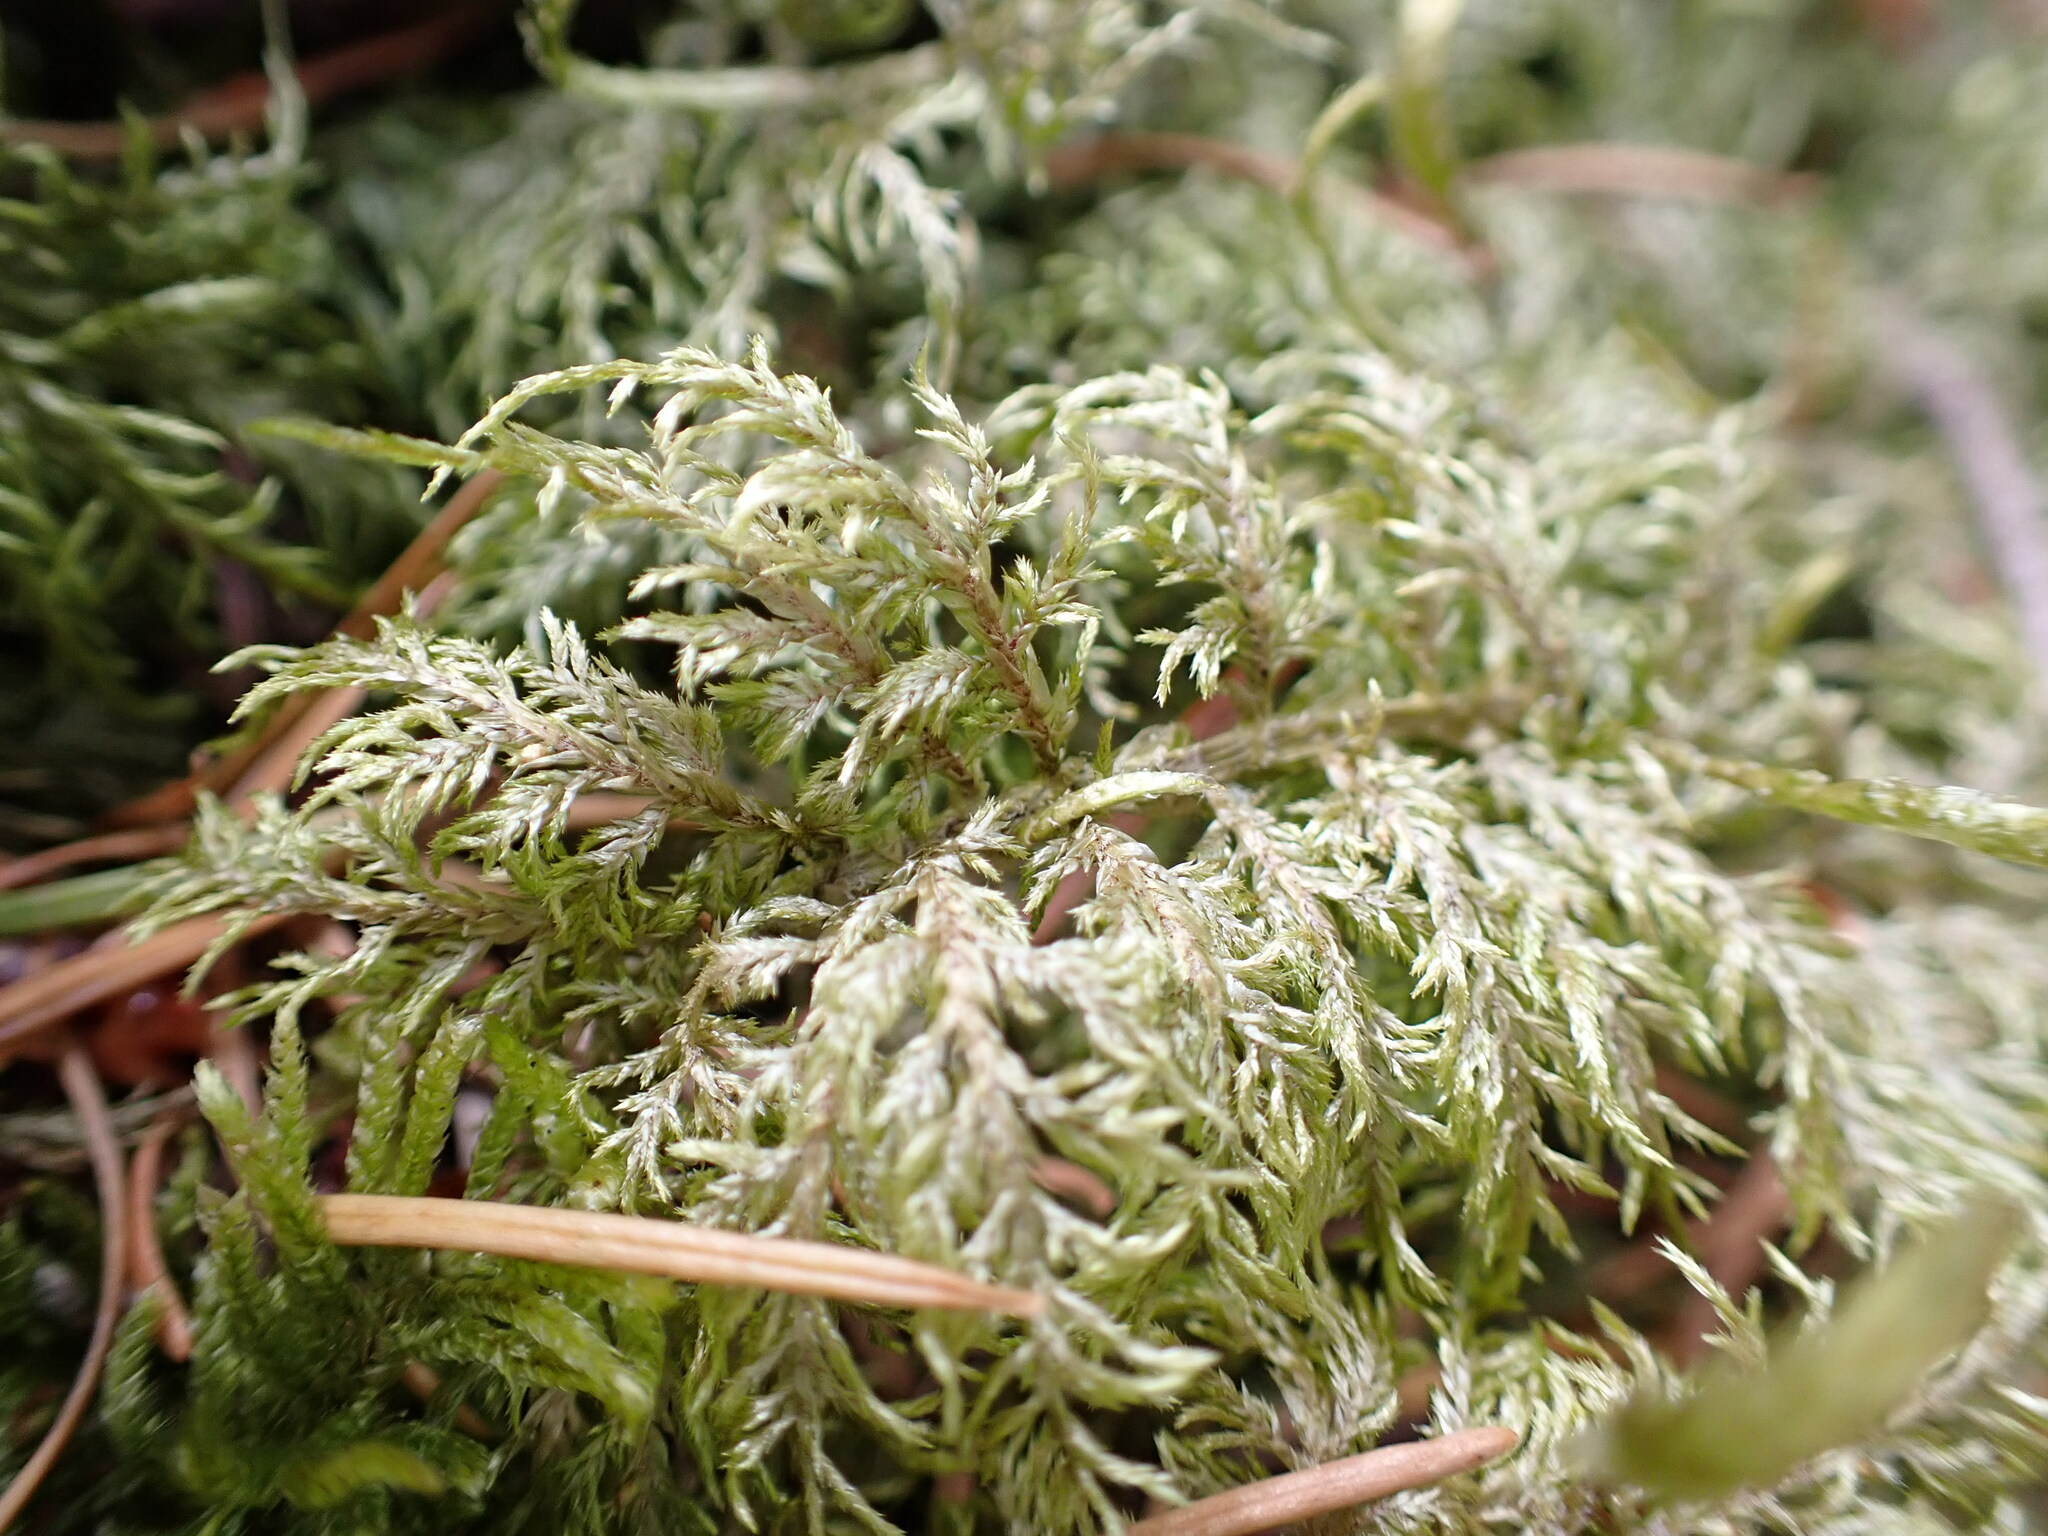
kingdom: Plantae
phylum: Bryophyta
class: Bryopsida
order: Hypnales
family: Hylocomiaceae
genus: Hylocomium
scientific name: Hylocomium splendens
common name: Stairstep moss
